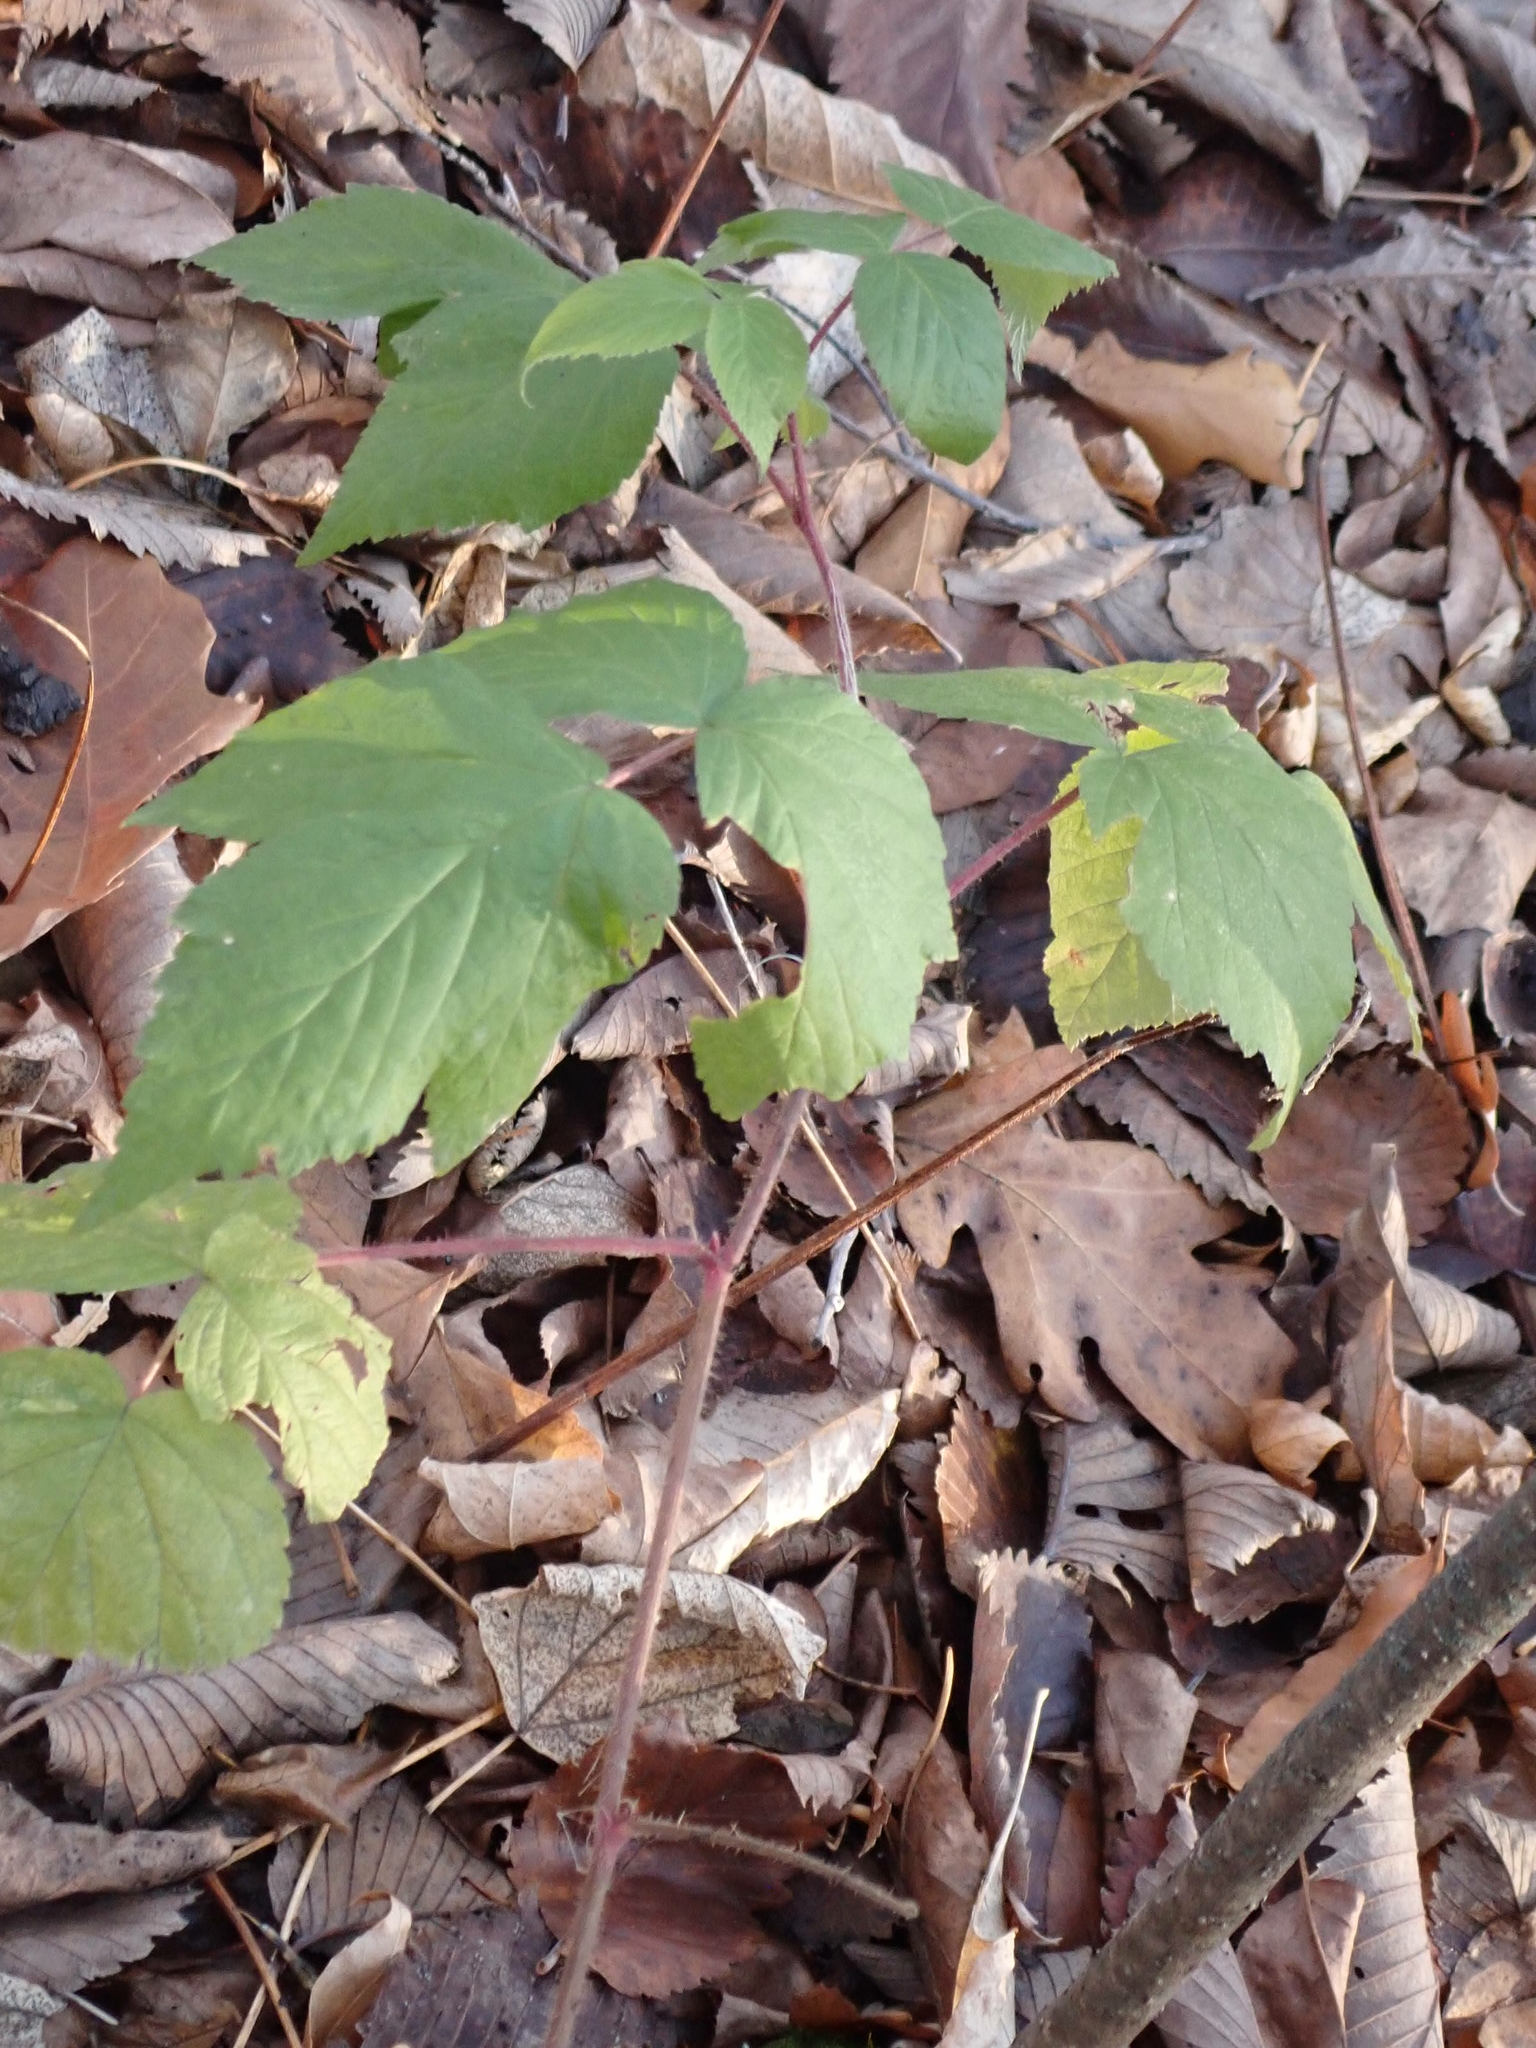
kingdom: Plantae
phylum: Tracheophyta
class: Magnoliopsida
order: Rosales
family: Rosaceae
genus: Rubus
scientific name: Rubus idaeus
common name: Raspberry
